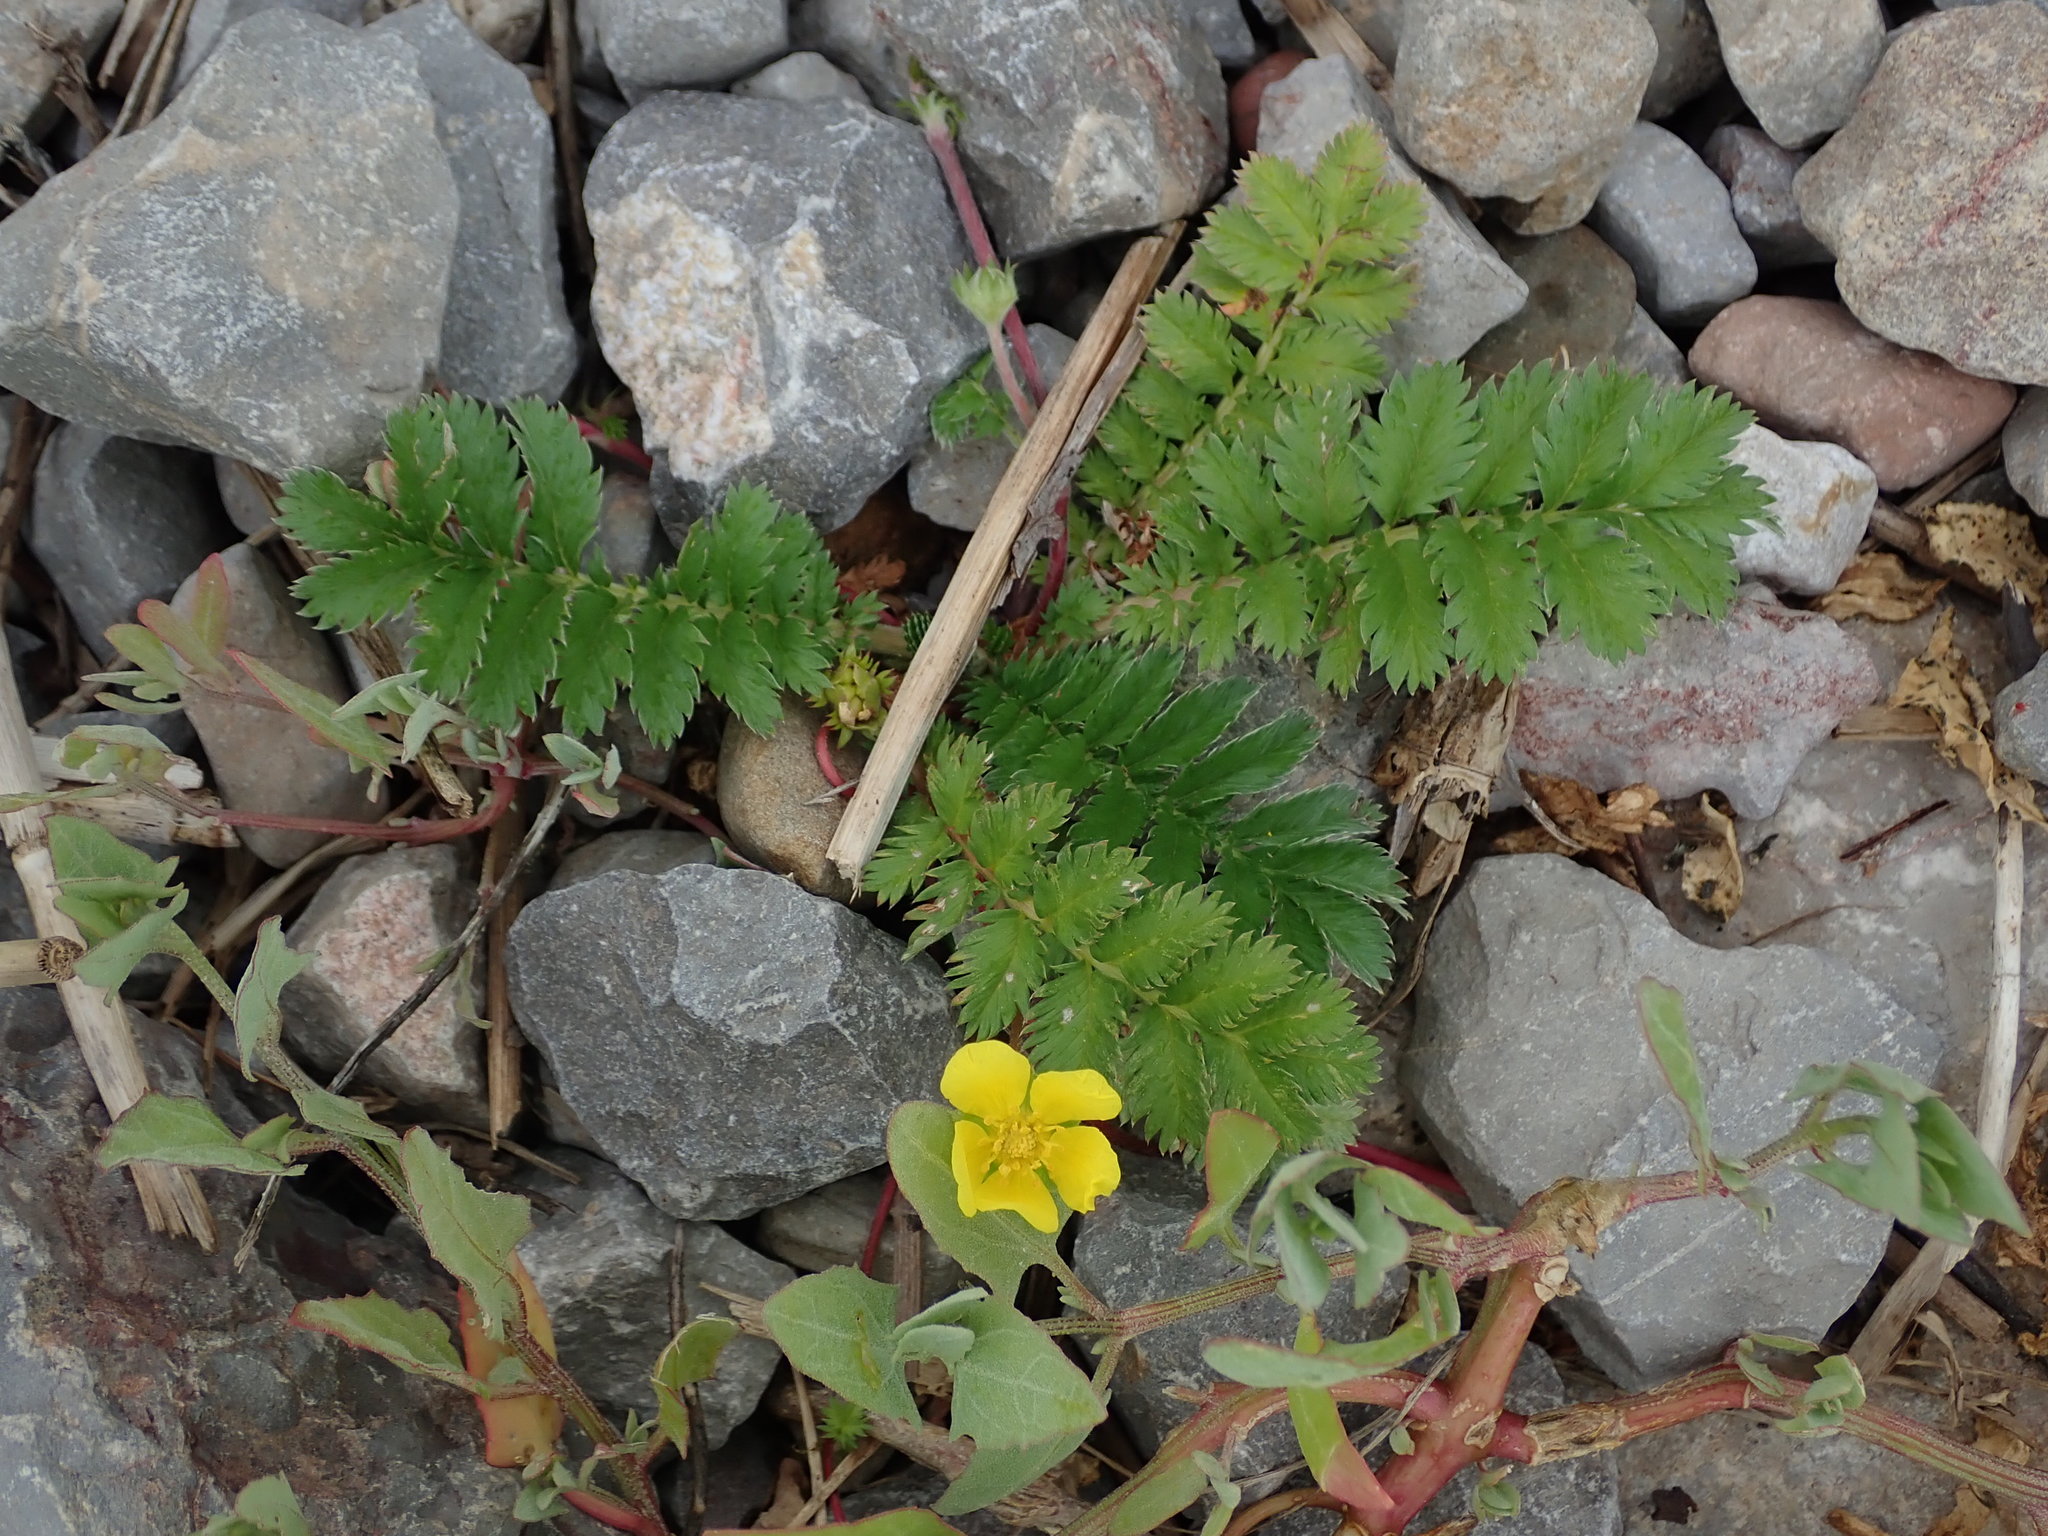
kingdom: Plantae
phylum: Tracheophyta
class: Magnoliopsida
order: Rosales
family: Rosaceae
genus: Argentina
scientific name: Argentina anserina
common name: Common silverweed
